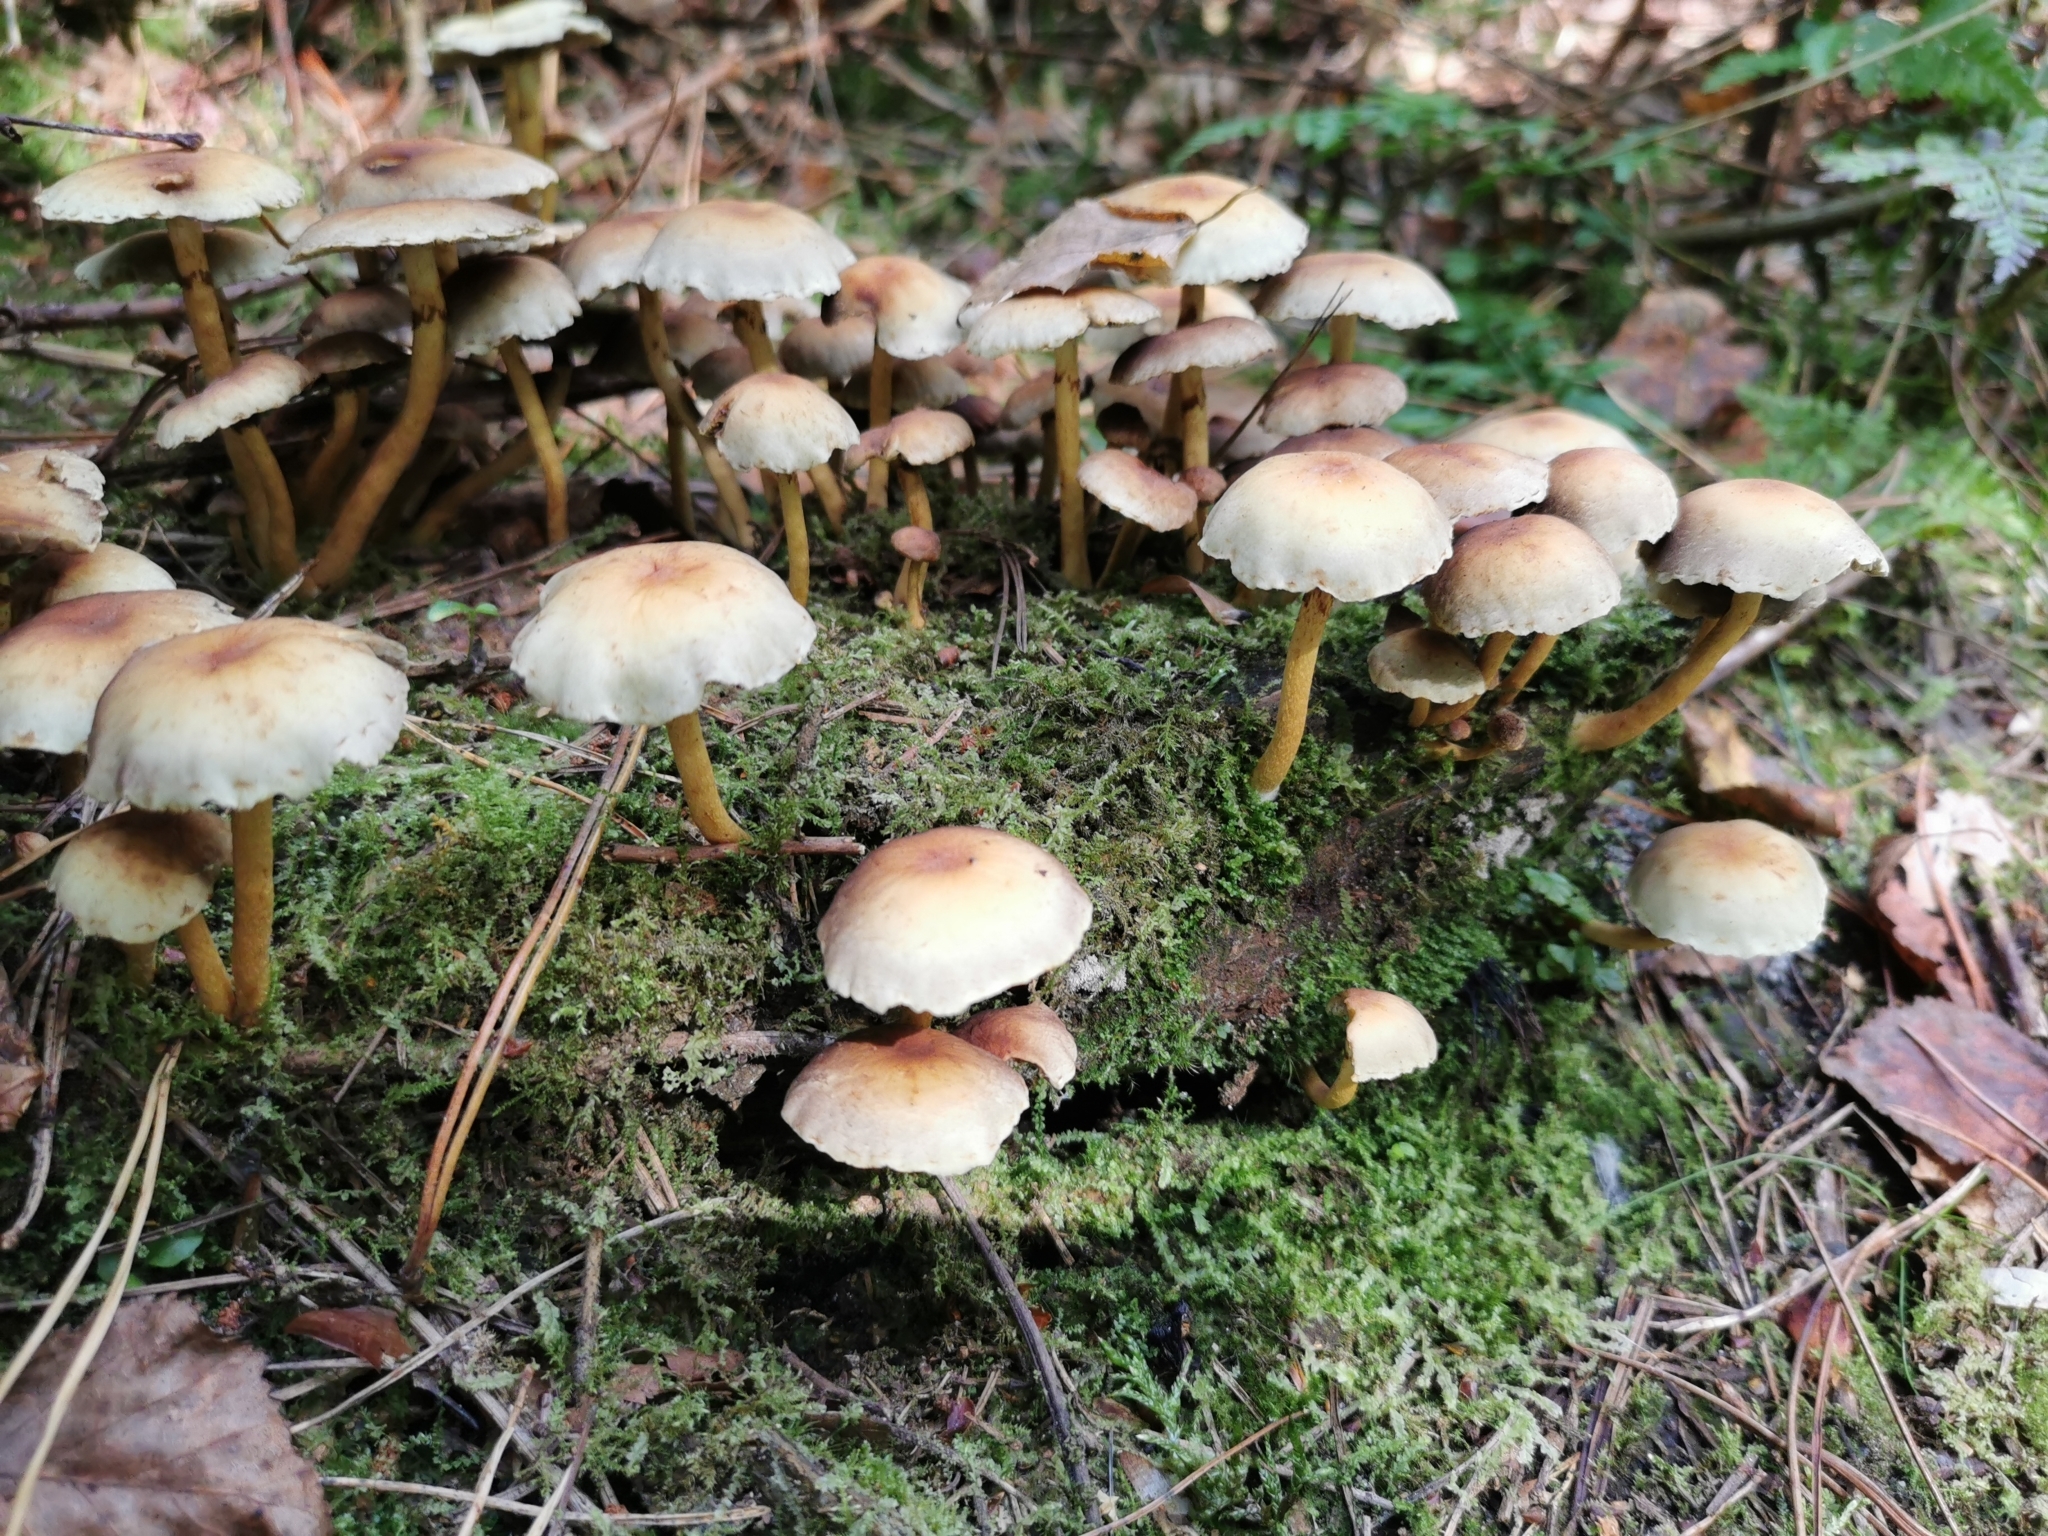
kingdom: Fungi
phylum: Basidiomycota
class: Agaricomycetes
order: Agaricales
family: Strophariaceae
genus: Hypholoma
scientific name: Hypholoma fasciculare
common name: Sulphur tuft
